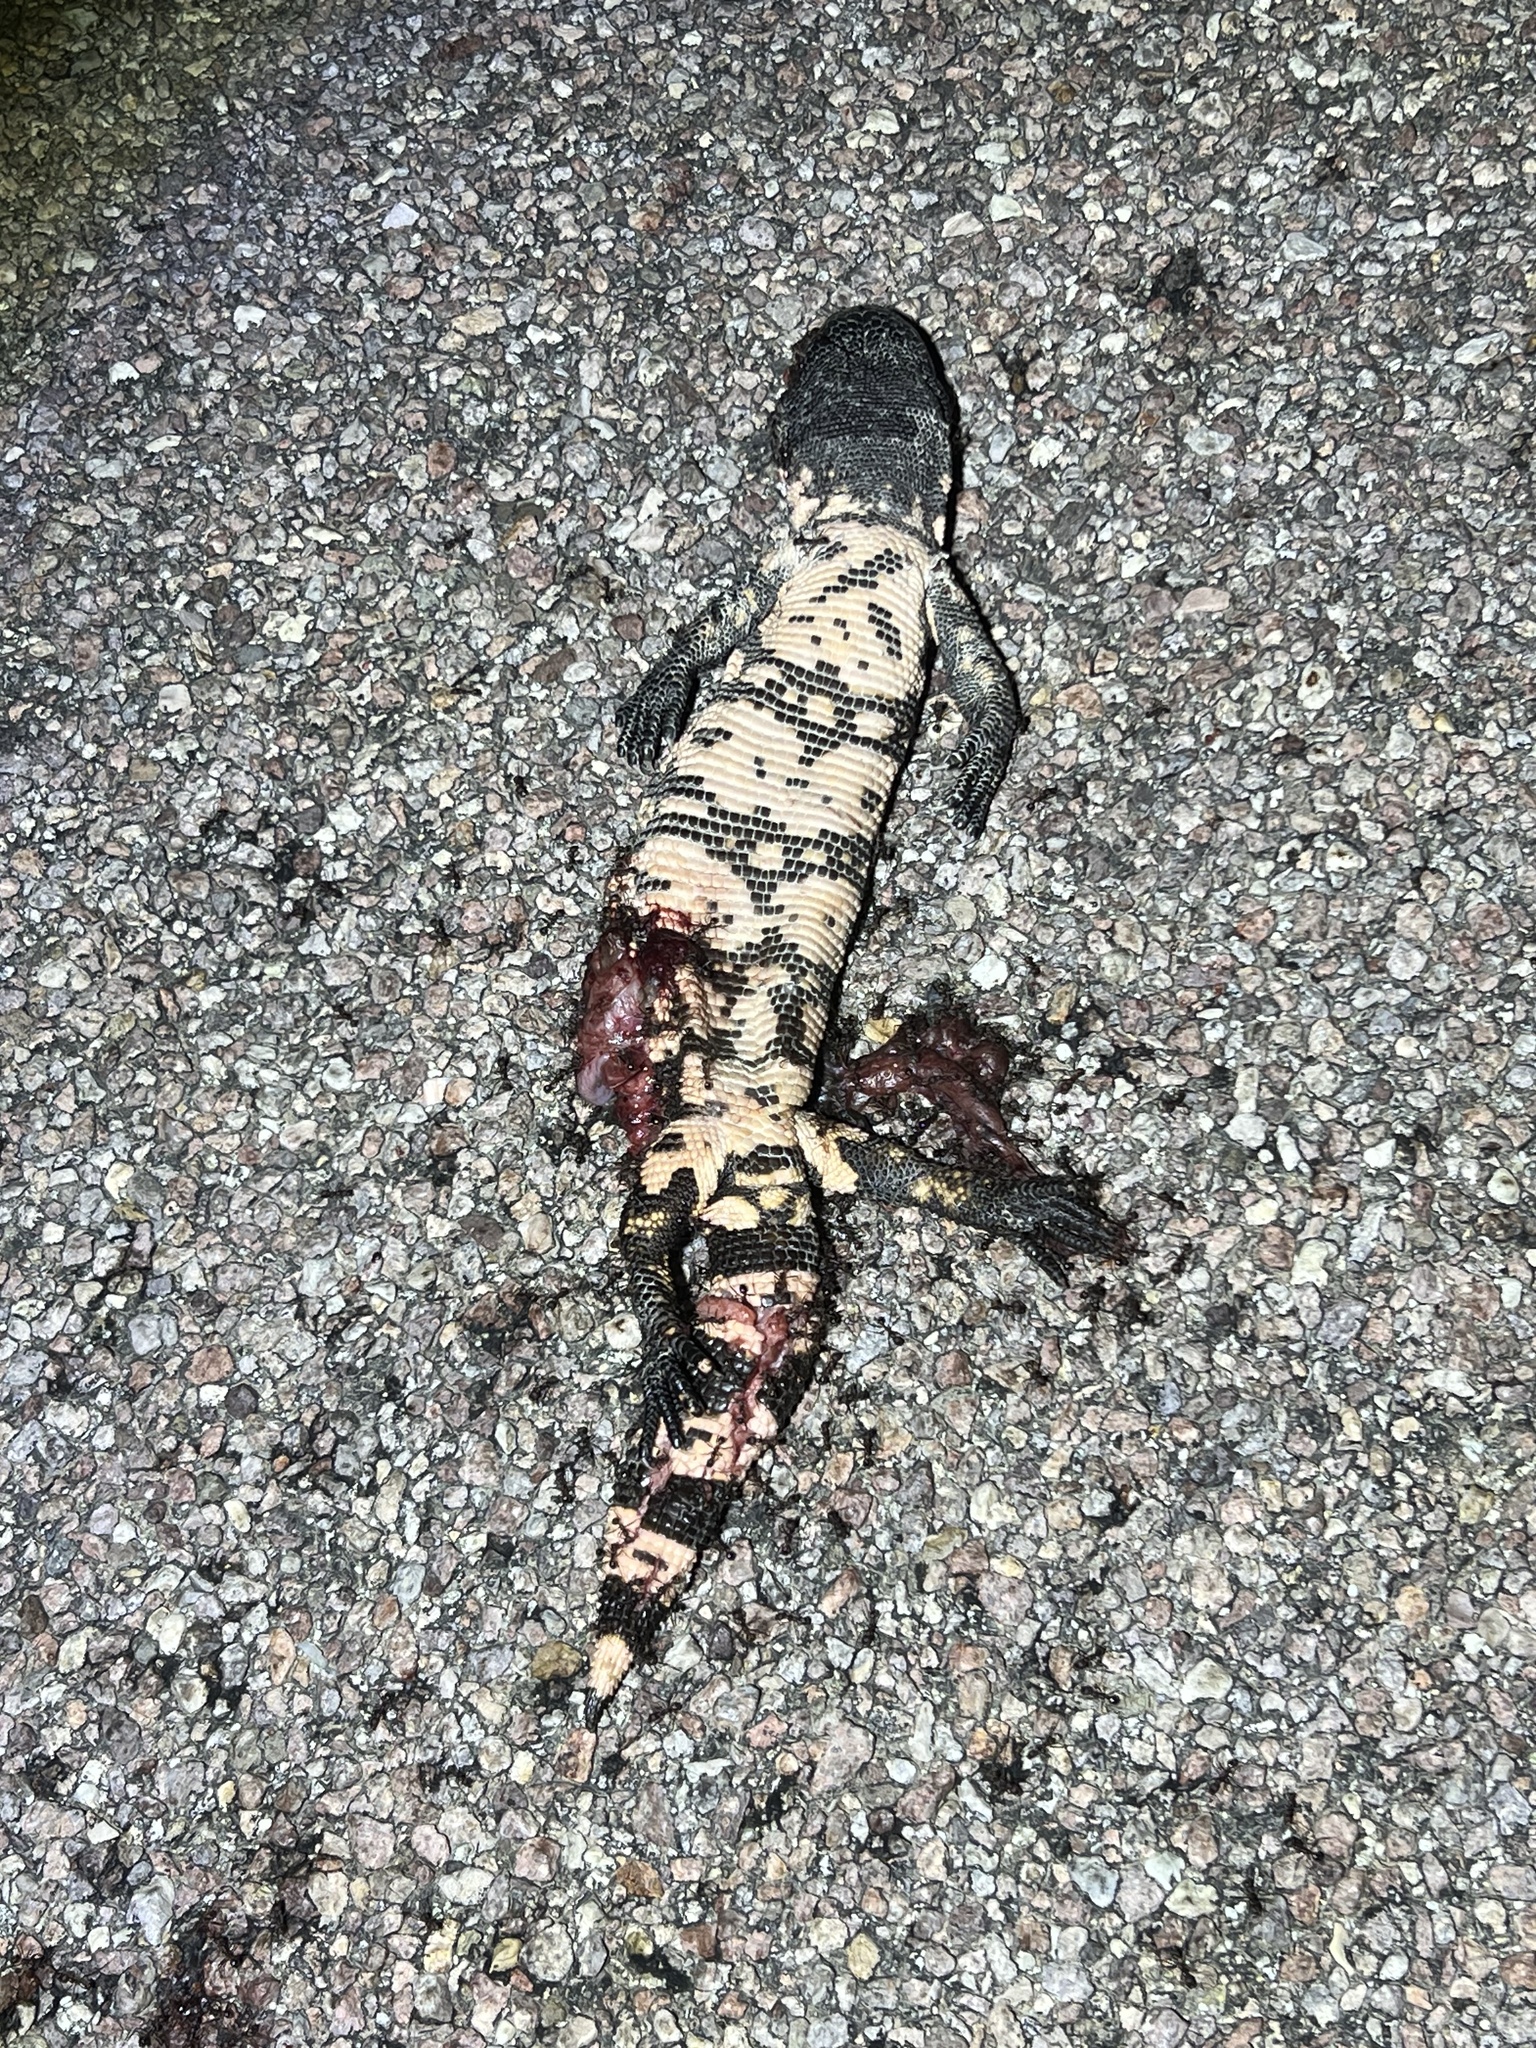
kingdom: Animalia
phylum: Chordata
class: Squamata
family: Helodermatidae
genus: Heloderma
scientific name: Heloderma suspectum
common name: Gila monster
